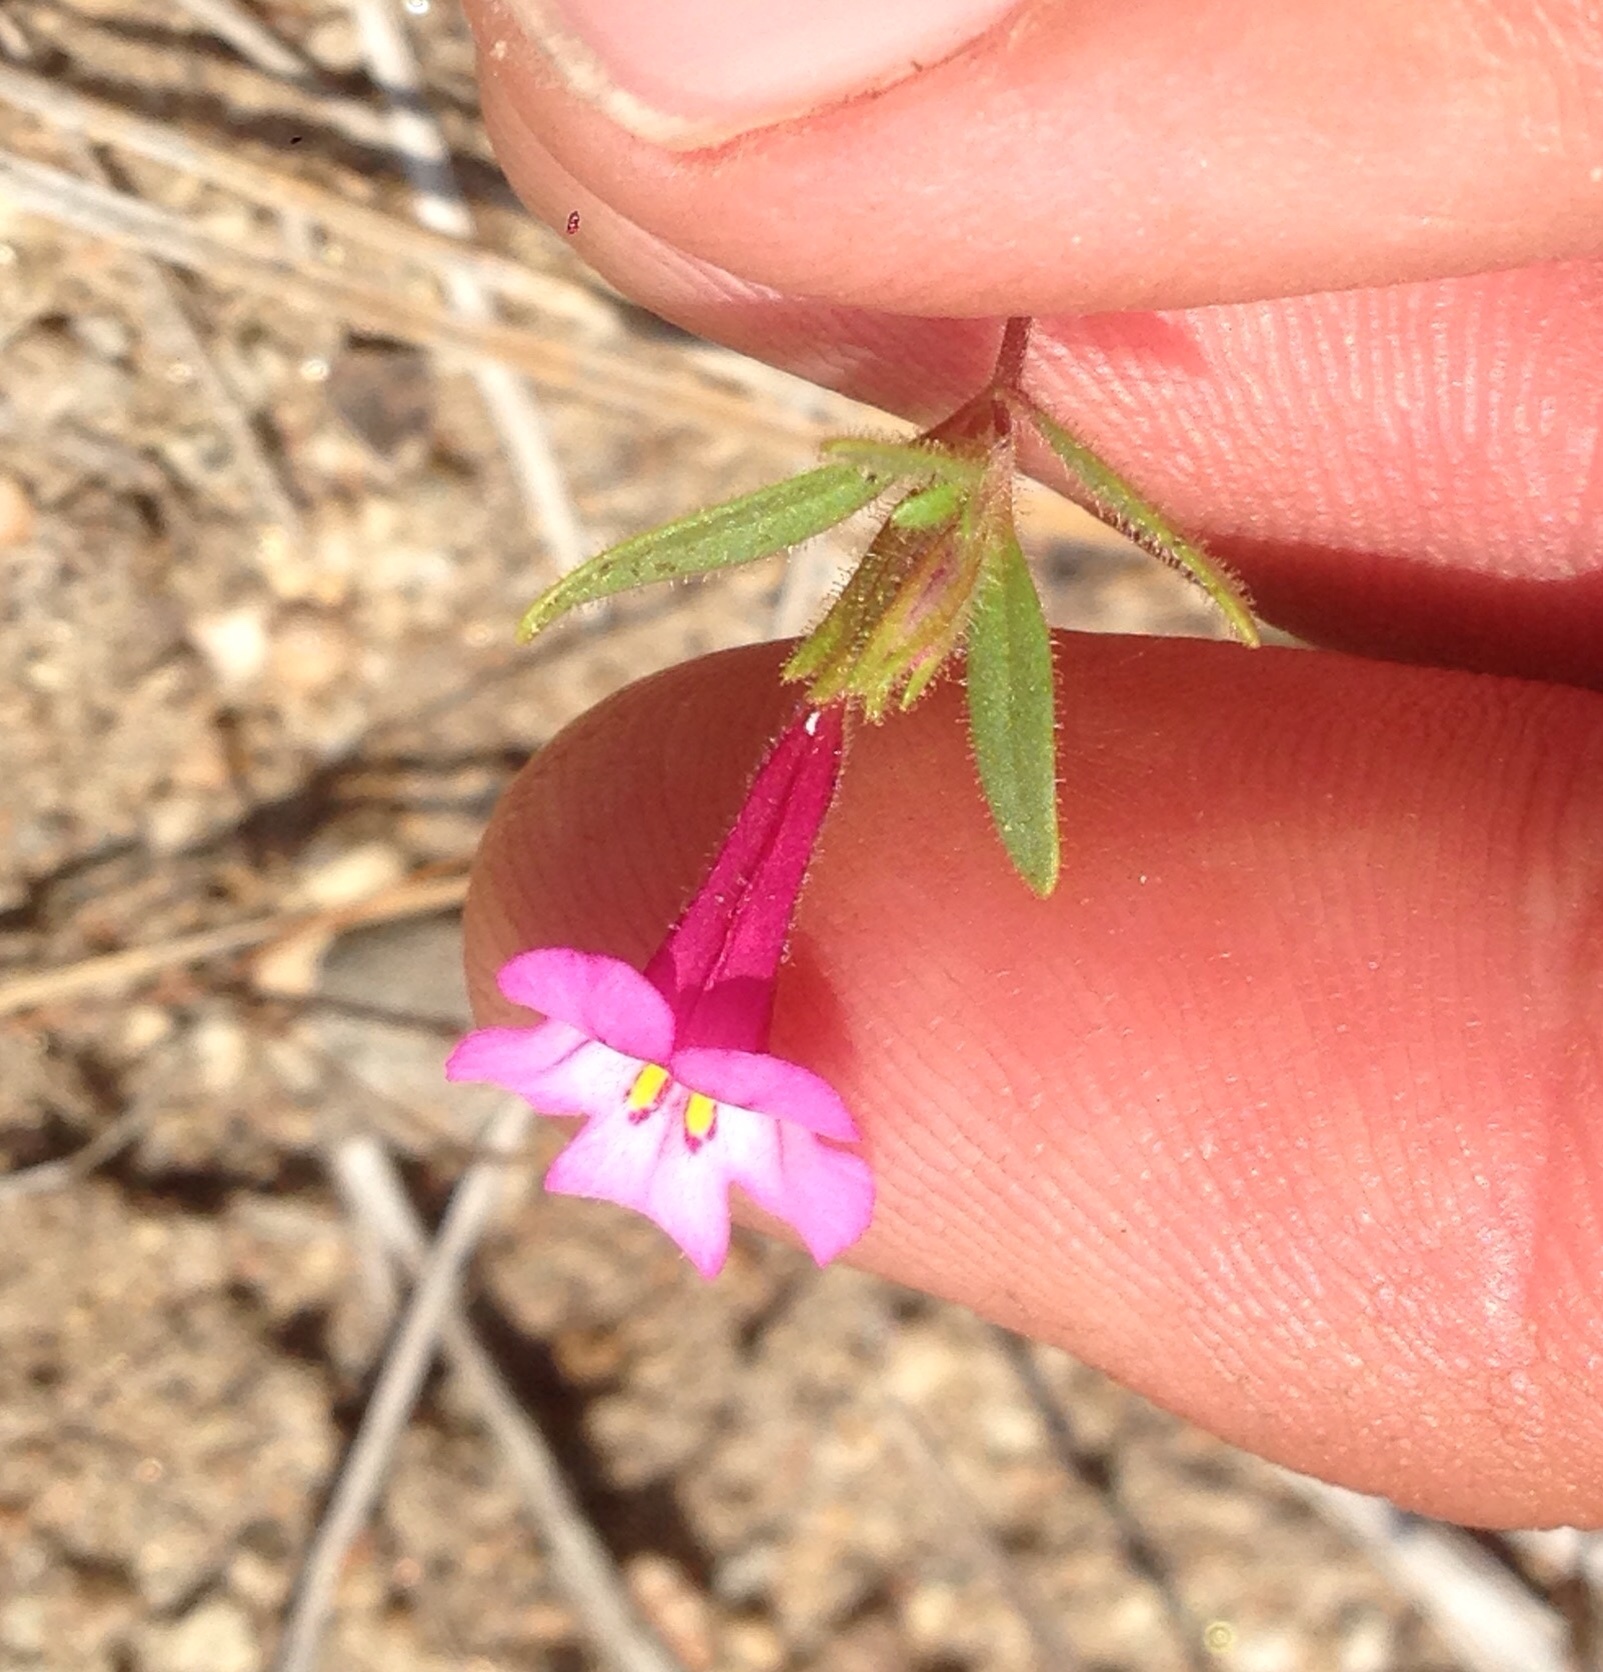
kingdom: Plantae
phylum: Tracheophyta
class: Magnoliopsida
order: Lamiales
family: Phrymaceae
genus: Diplacus
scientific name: Diplacus torreyi
